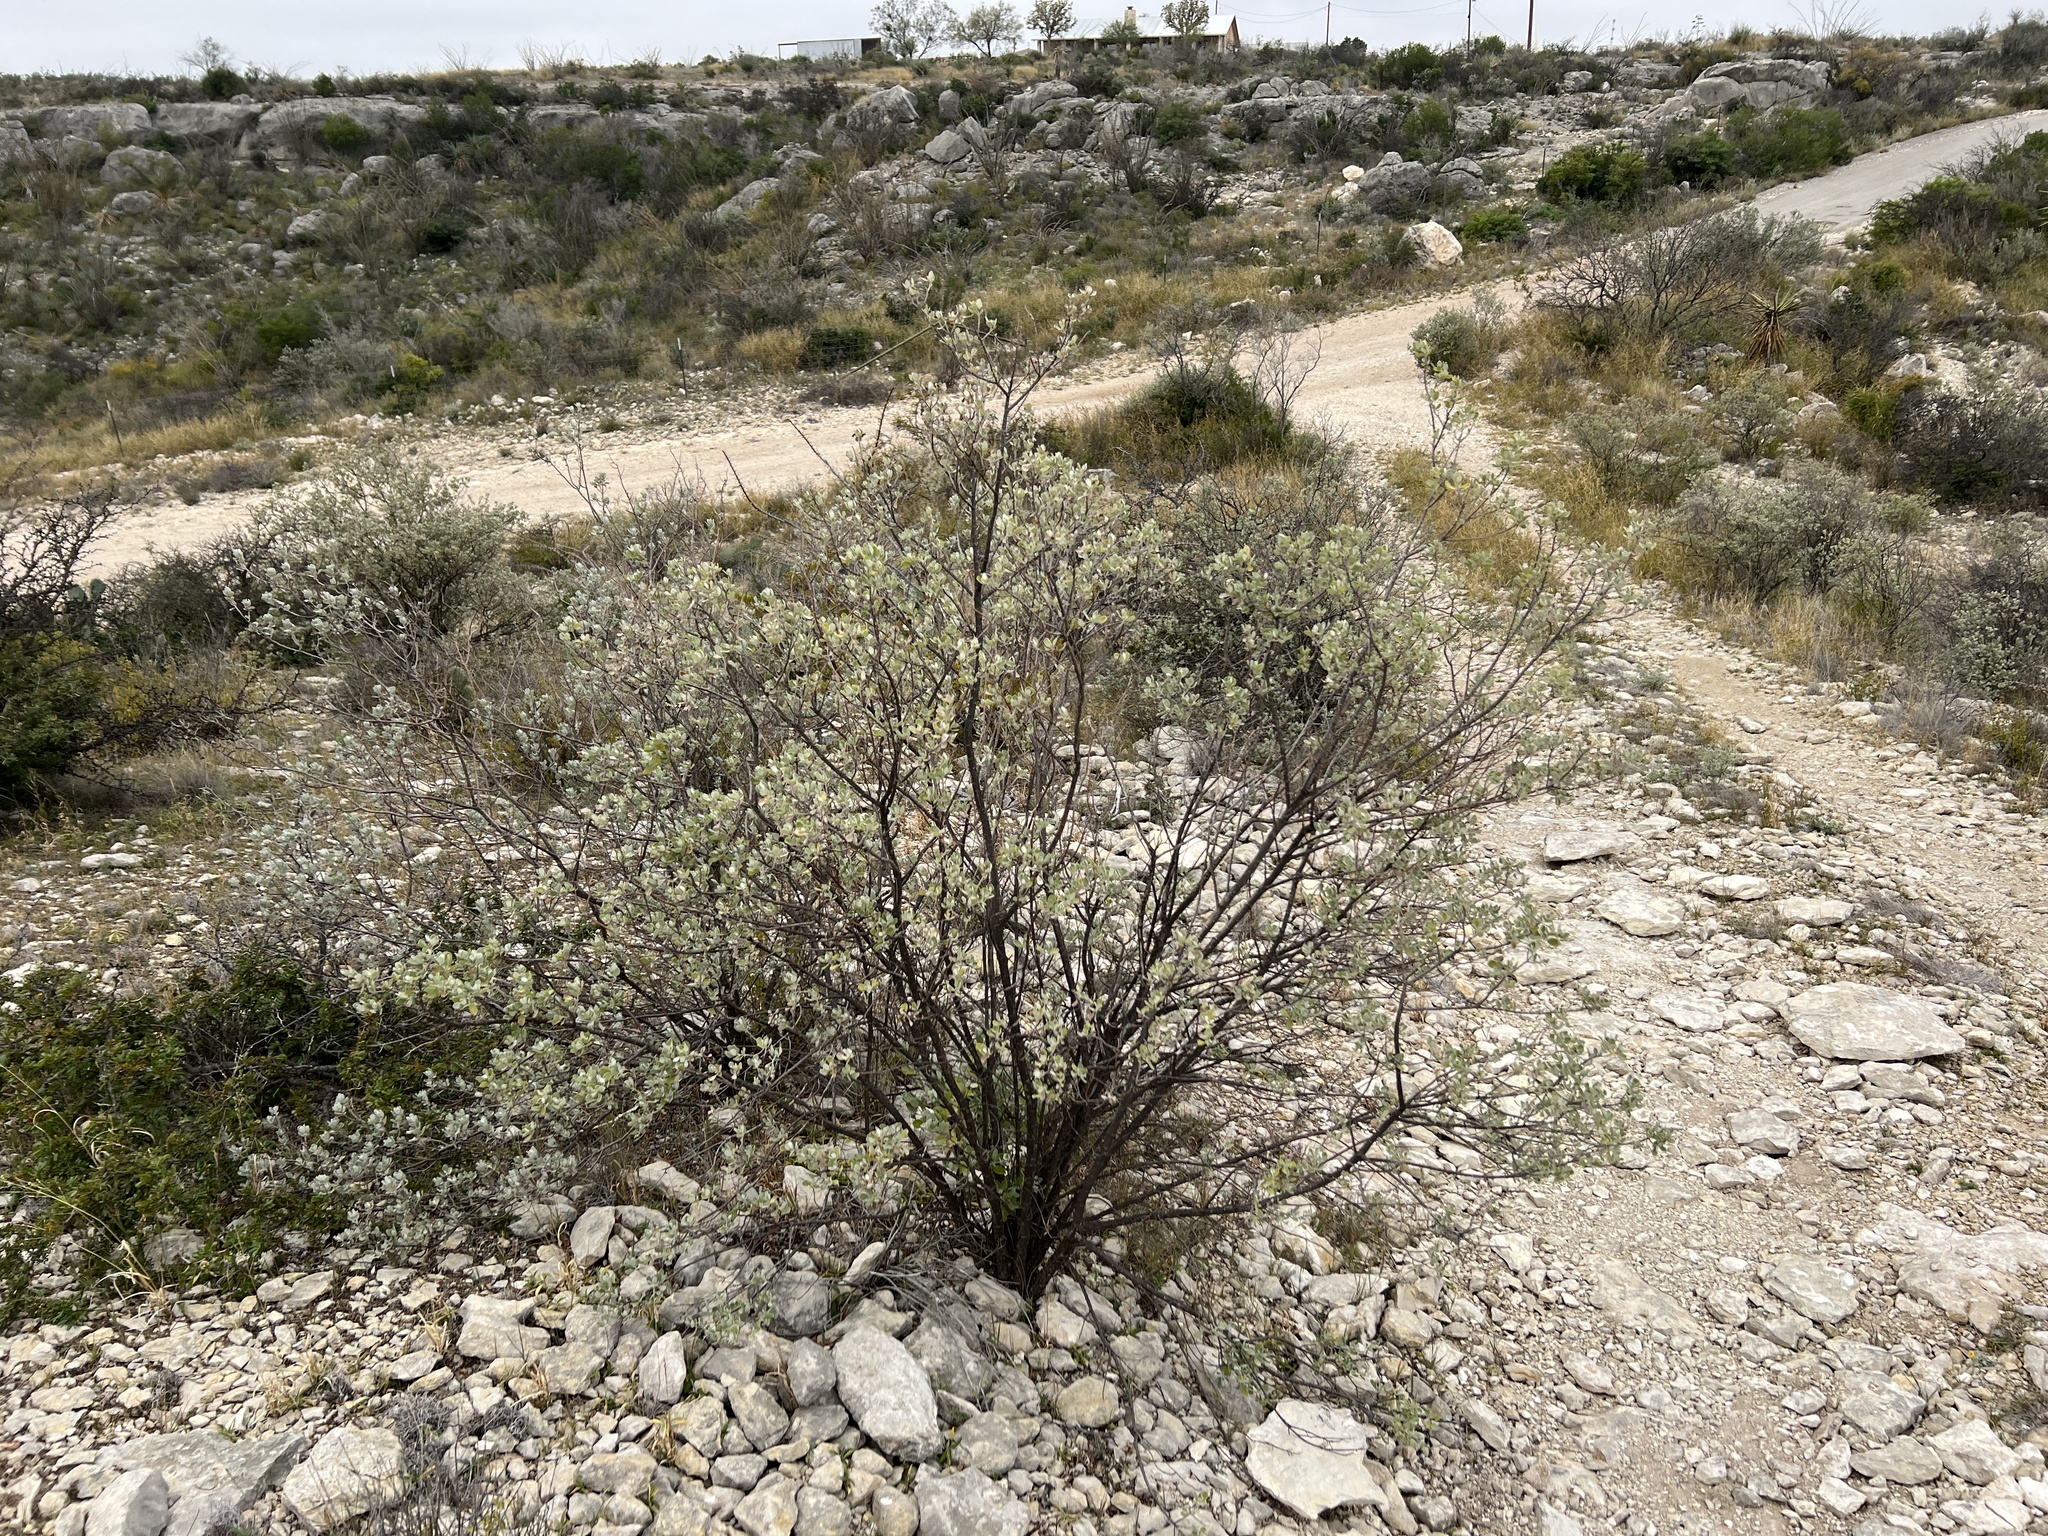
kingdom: Plantae
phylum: Tracheophyta
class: Magnoliopsida
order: Lamiales
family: Scrophulariaceae
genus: Leucophyllum
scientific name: Leucophyllum frutescens
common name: Texas silverleaf
